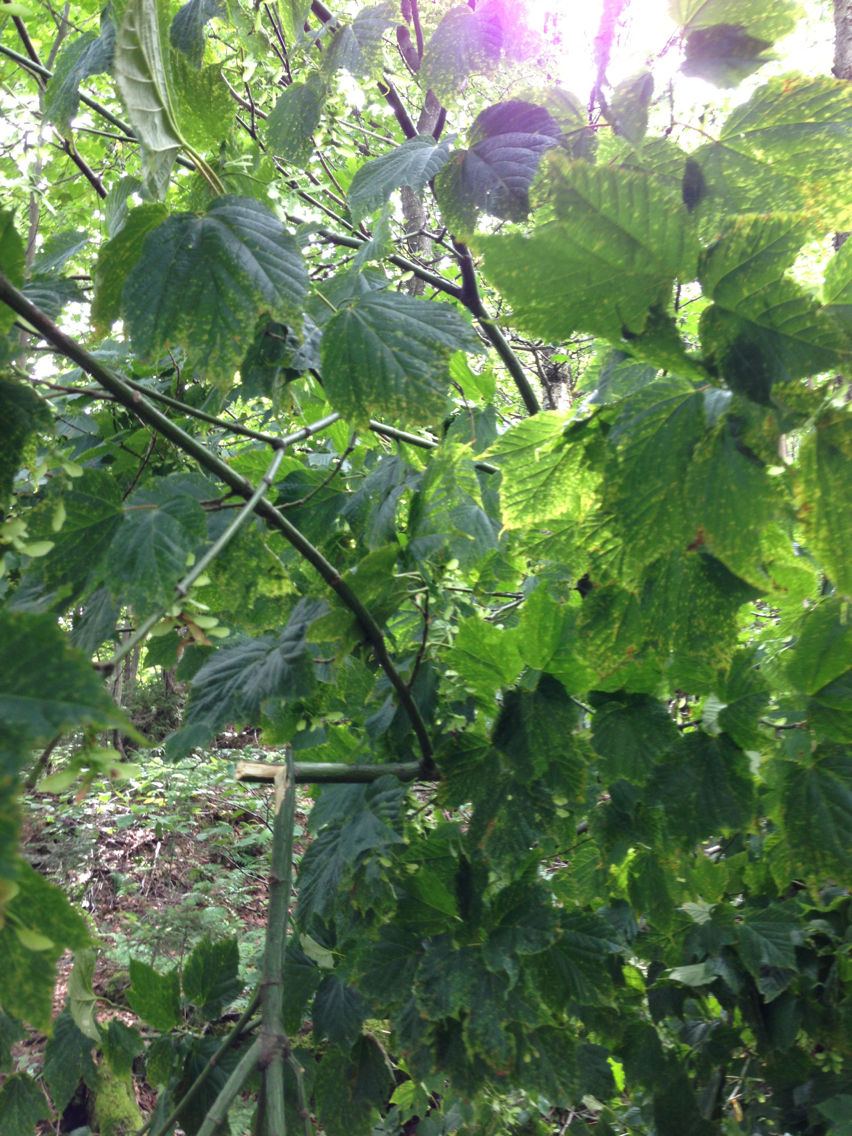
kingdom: Plantae
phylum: Tracheophyta
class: Magnoliopsida
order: Sapindales
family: Sapindaceae
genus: Acer
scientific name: Acer pensylvanicum
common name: Moosewood
